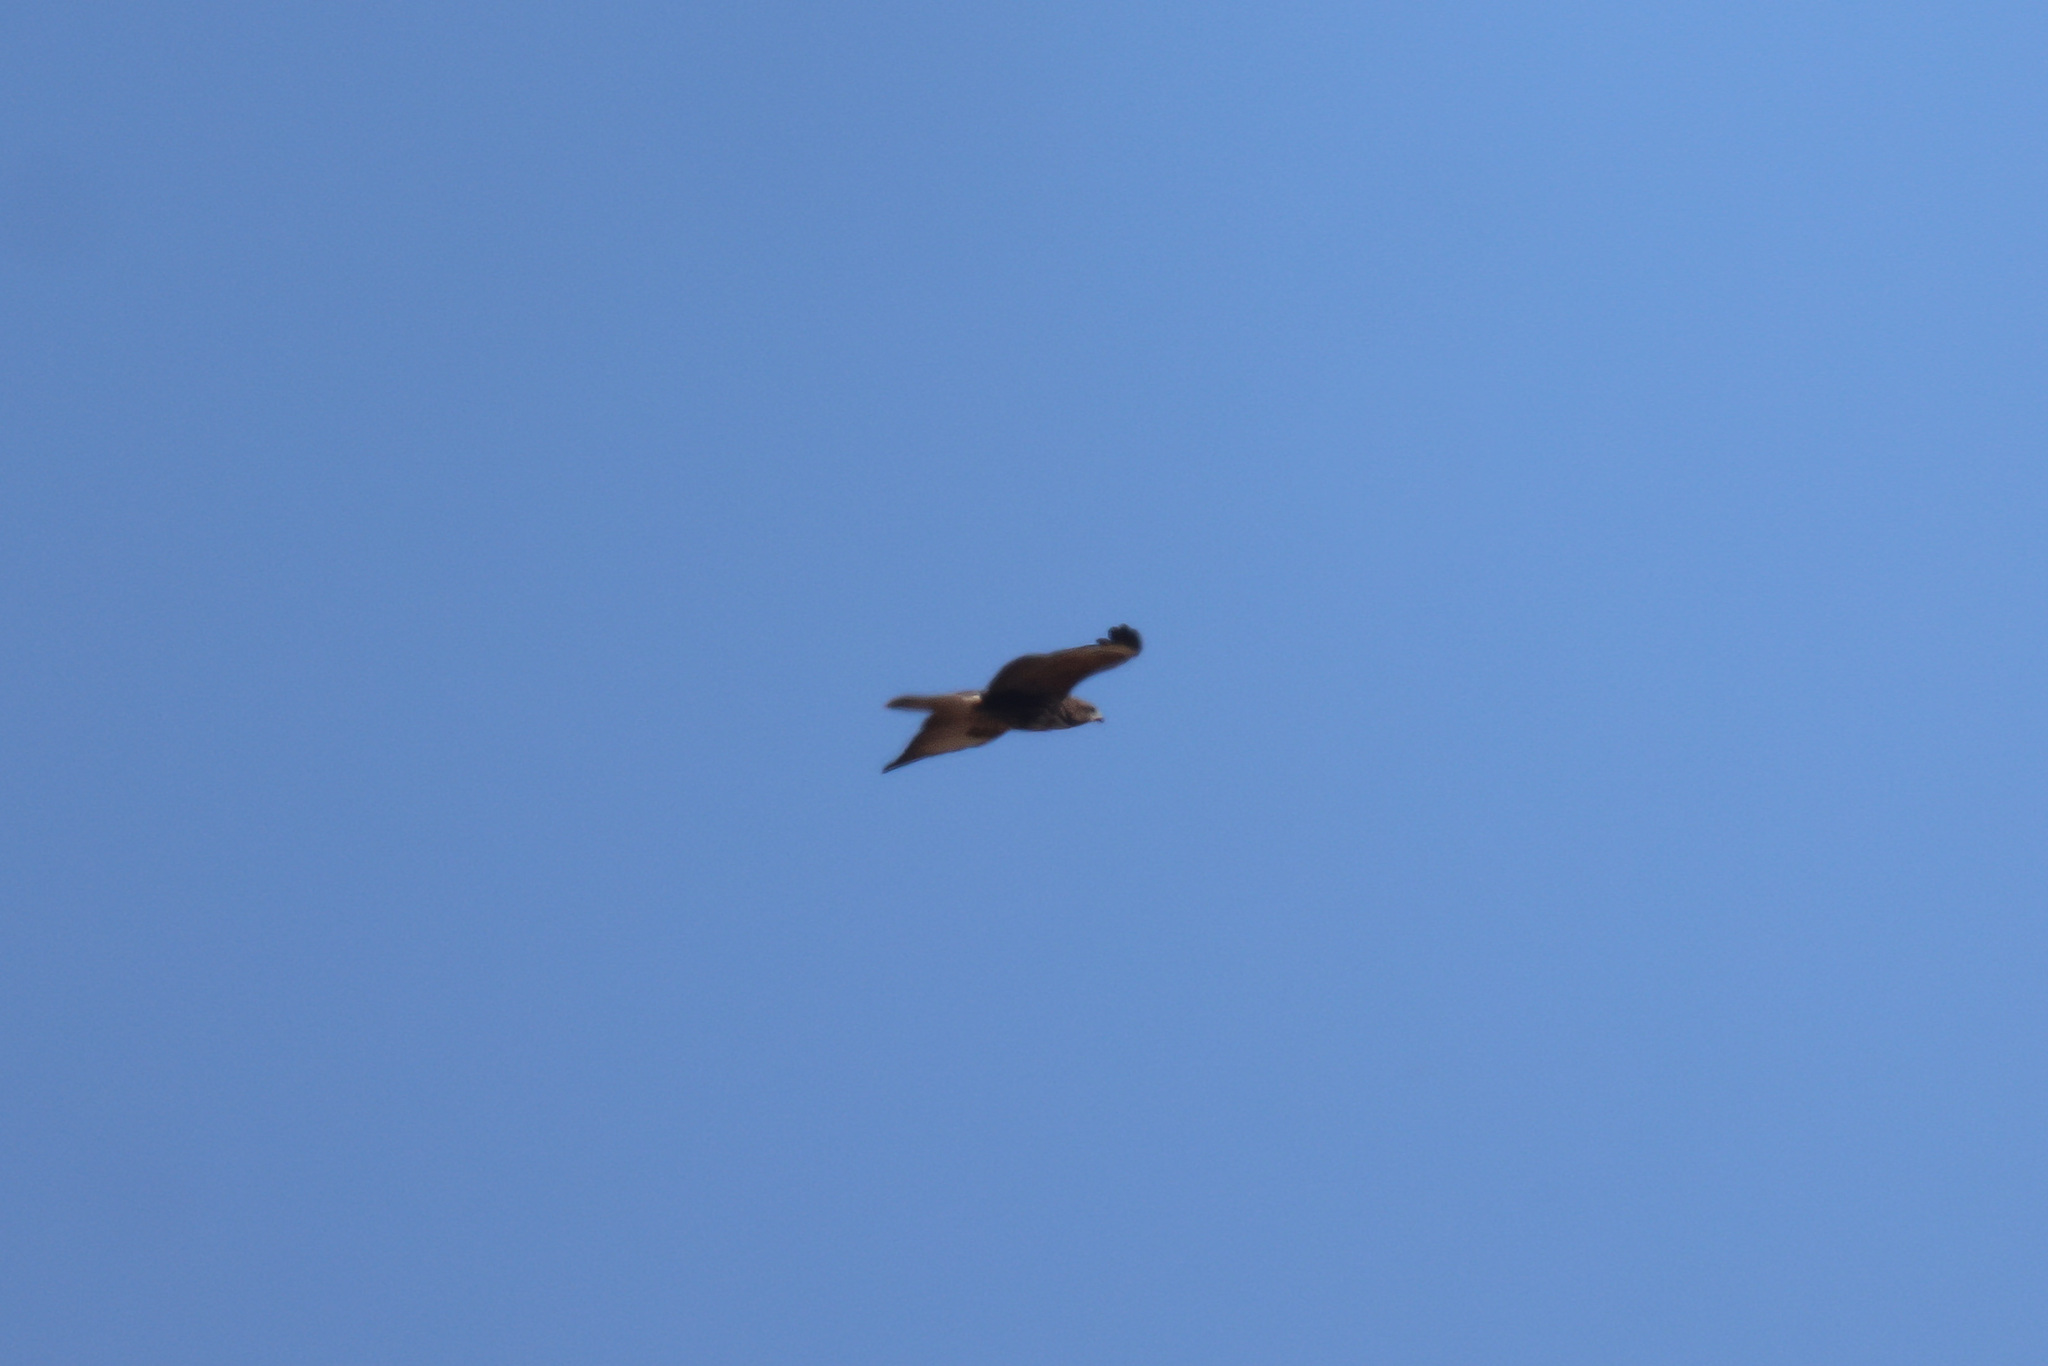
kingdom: Animalia
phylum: Chordata
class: Aves
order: Accipitriformes
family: Accipitridae
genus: Buteo
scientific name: Buteo buteo
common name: Common buzzard
